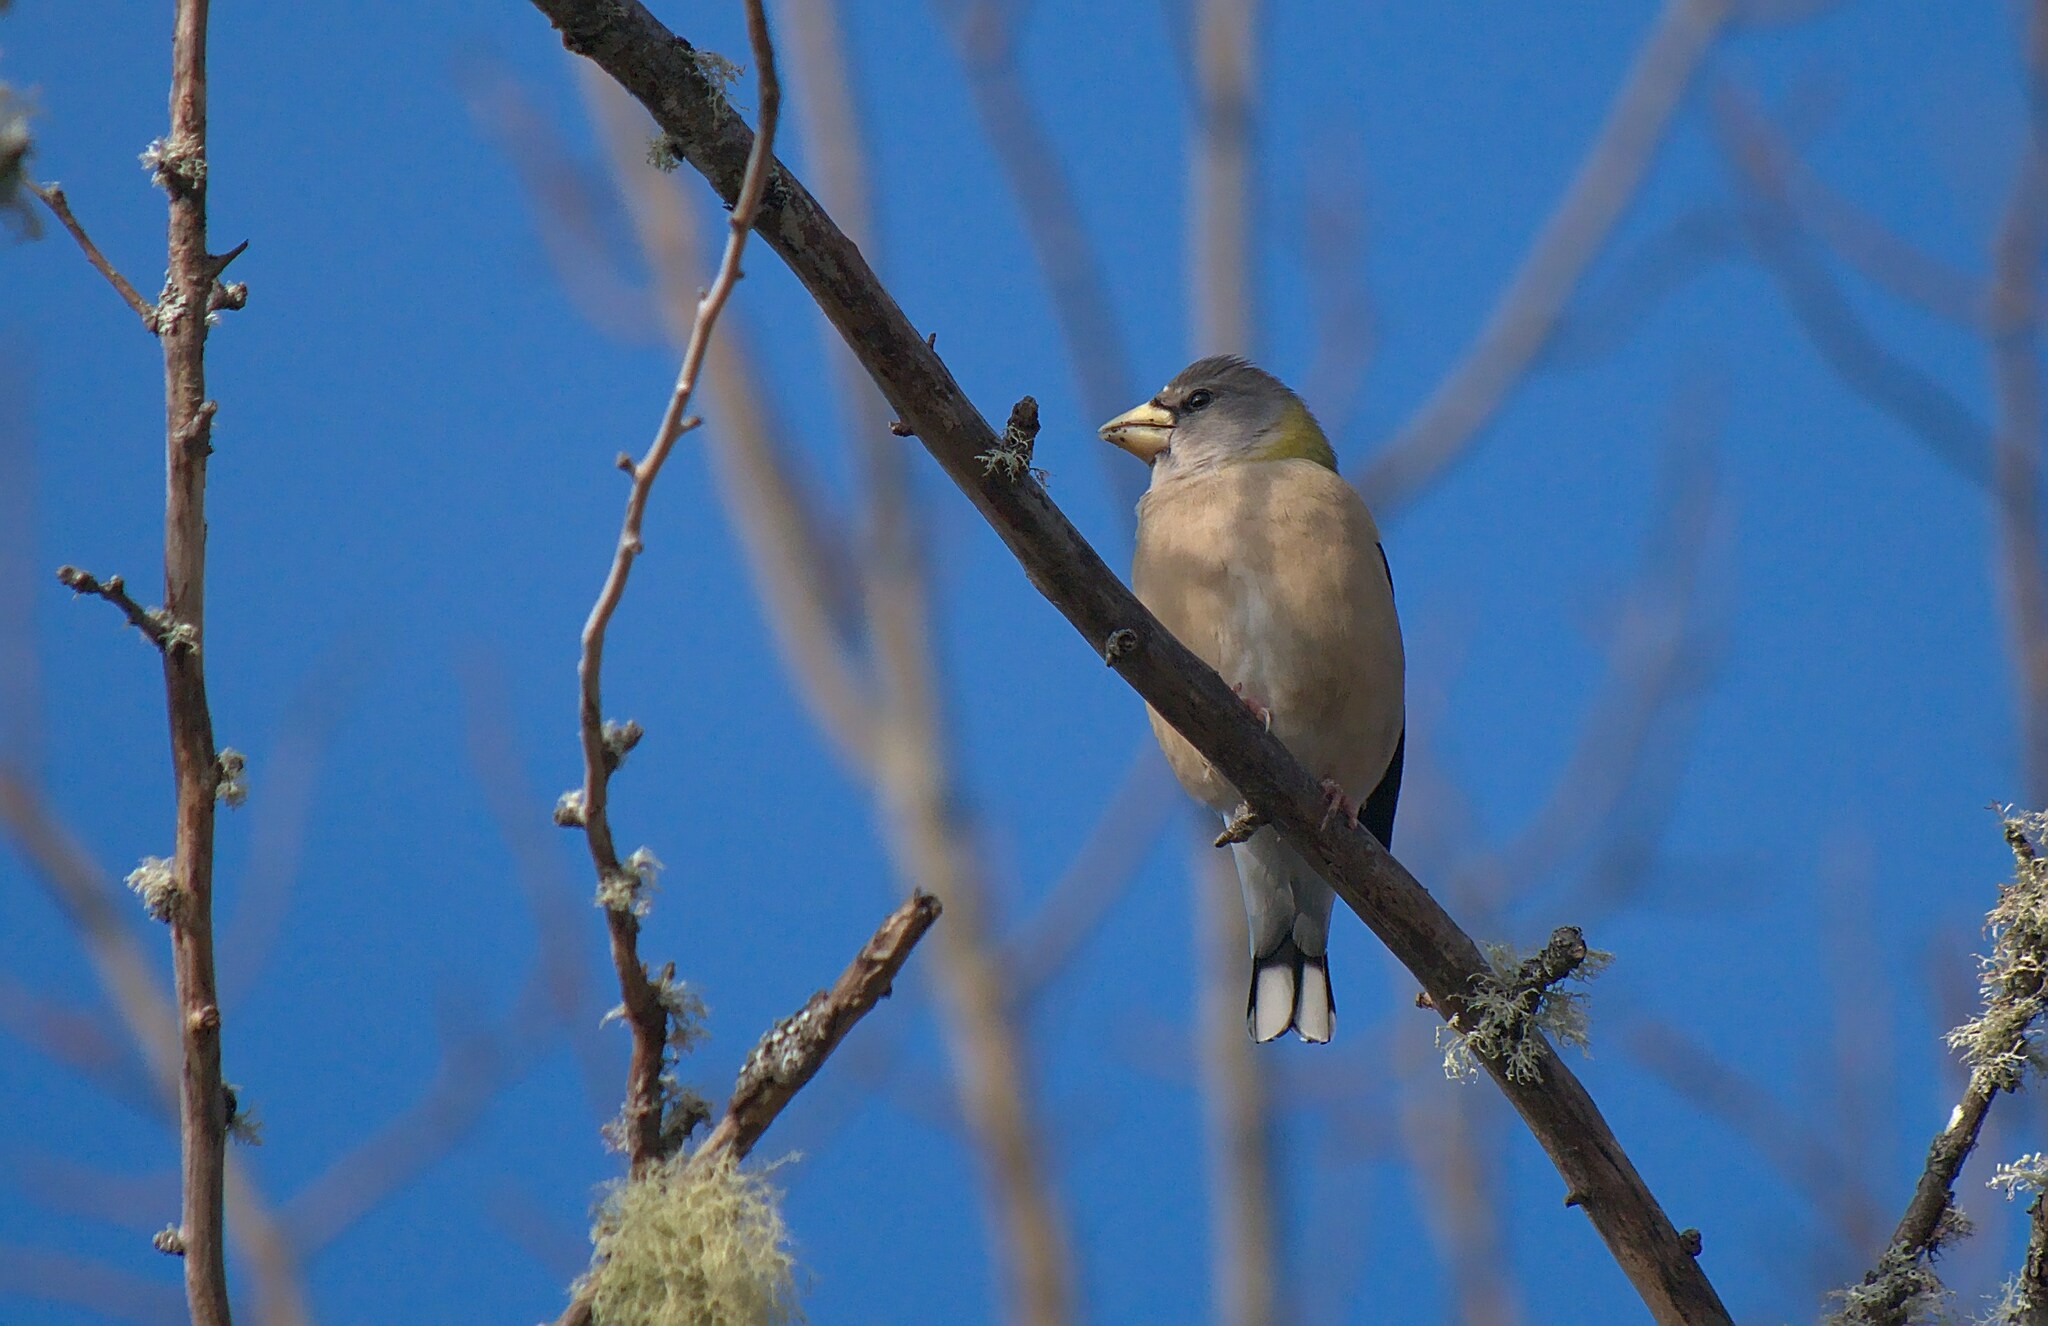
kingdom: Animalia
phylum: Chordata
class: Aves
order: Passeriformes
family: Fringillidae
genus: Hesperiphona
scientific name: Hesperiphona vespertina
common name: Evening grosbeak
